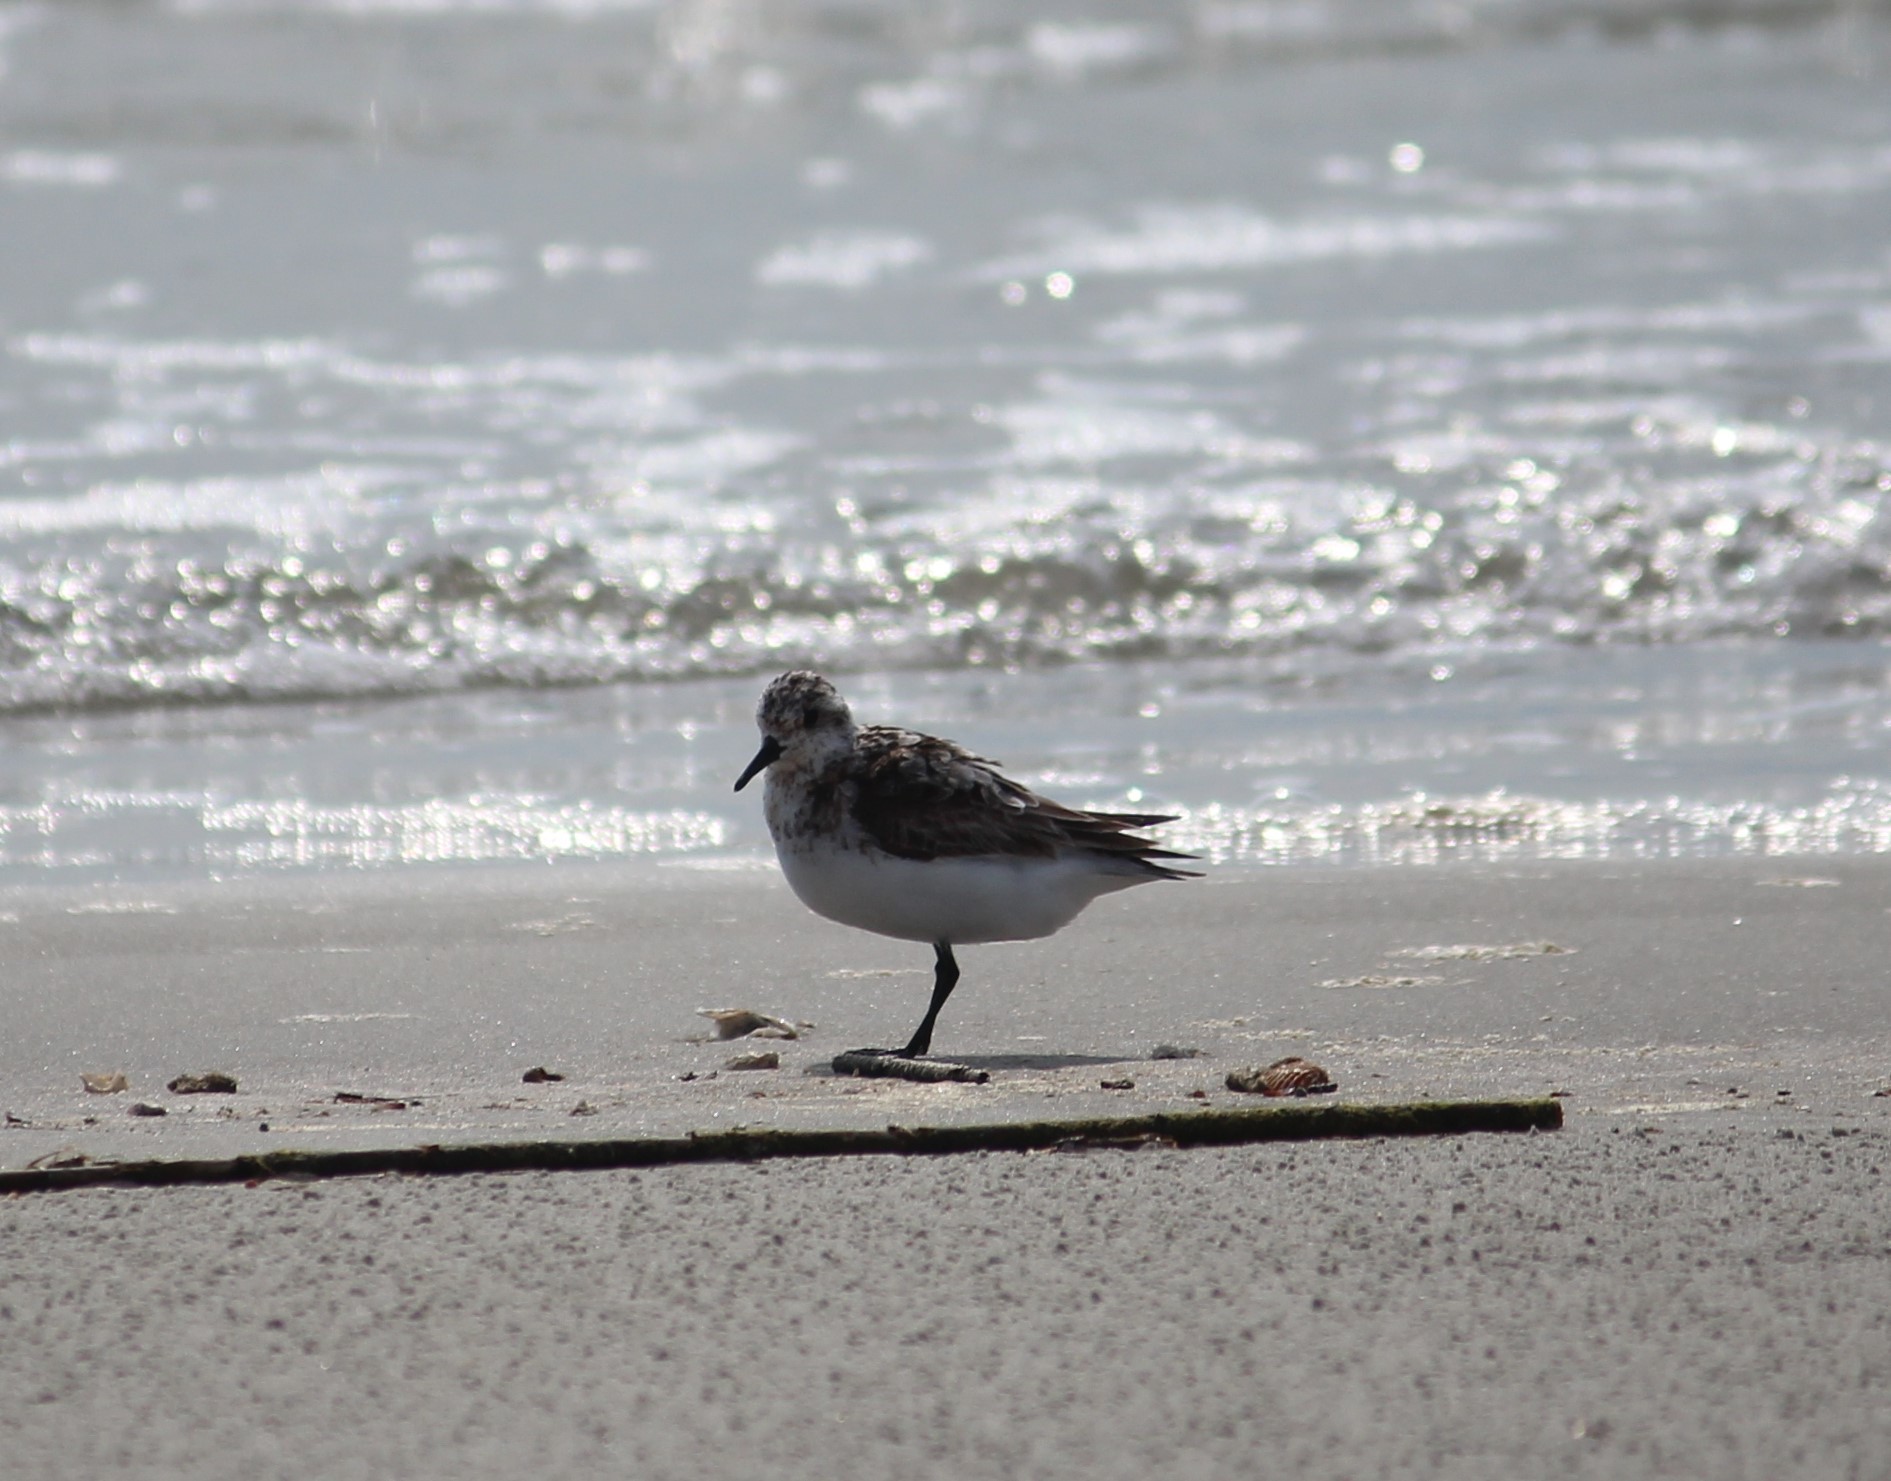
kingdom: Animalia
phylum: Chordata
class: Aves
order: Charadriiformes
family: Scolopacidae
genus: Calidris
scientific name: Calidris alba
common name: Sanderling
